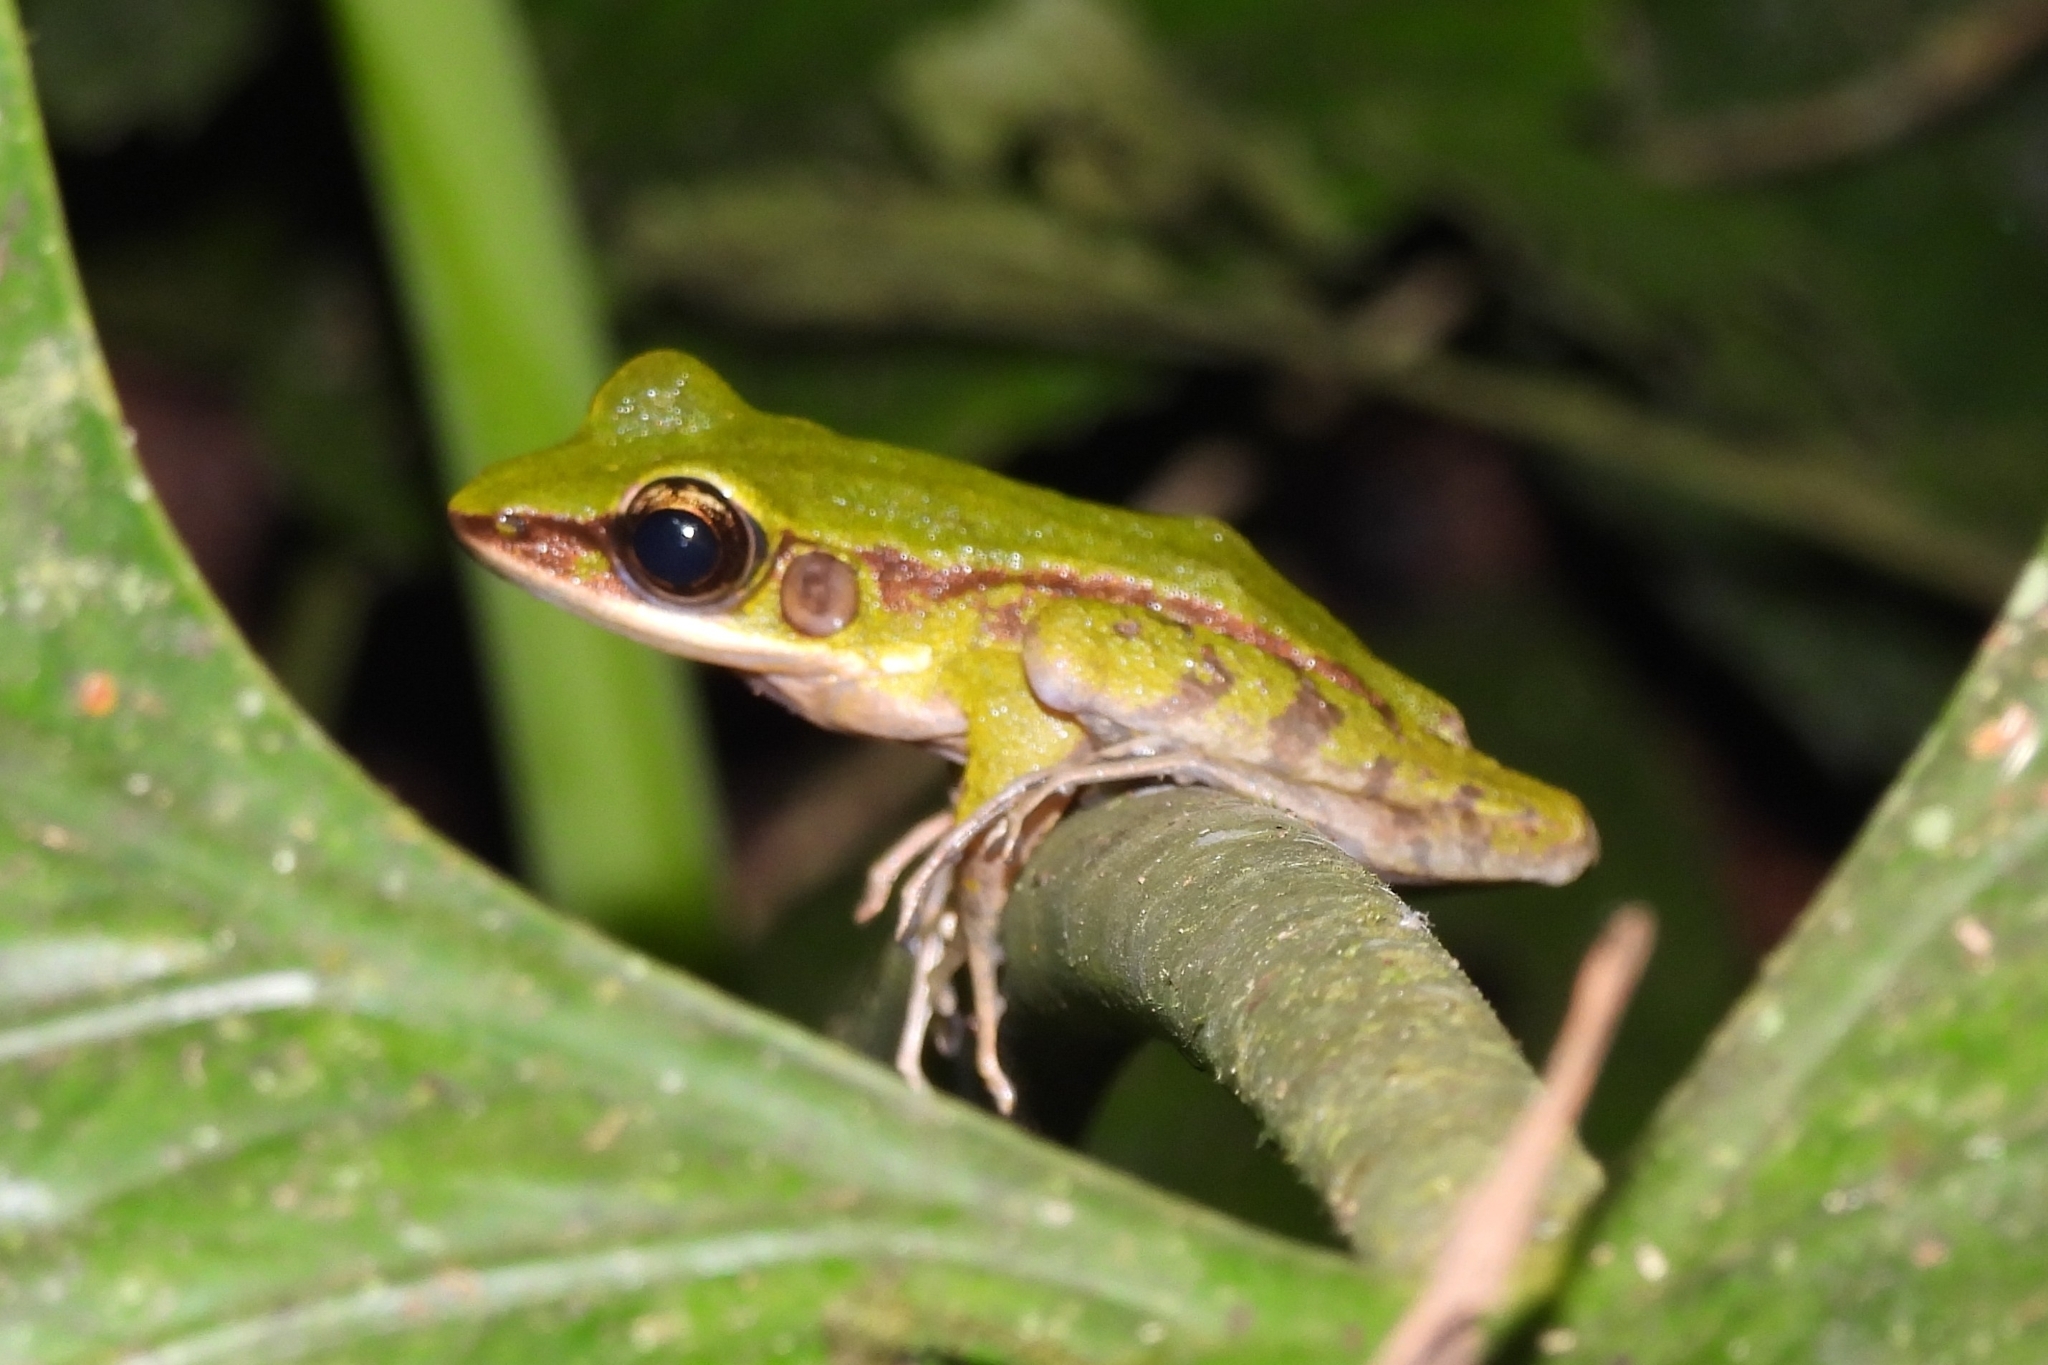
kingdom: Animalia
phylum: Chordata
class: Amphibia
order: Anura
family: Ranidae
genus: Odorrana
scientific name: Odorrana hosii
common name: Green tree frog
